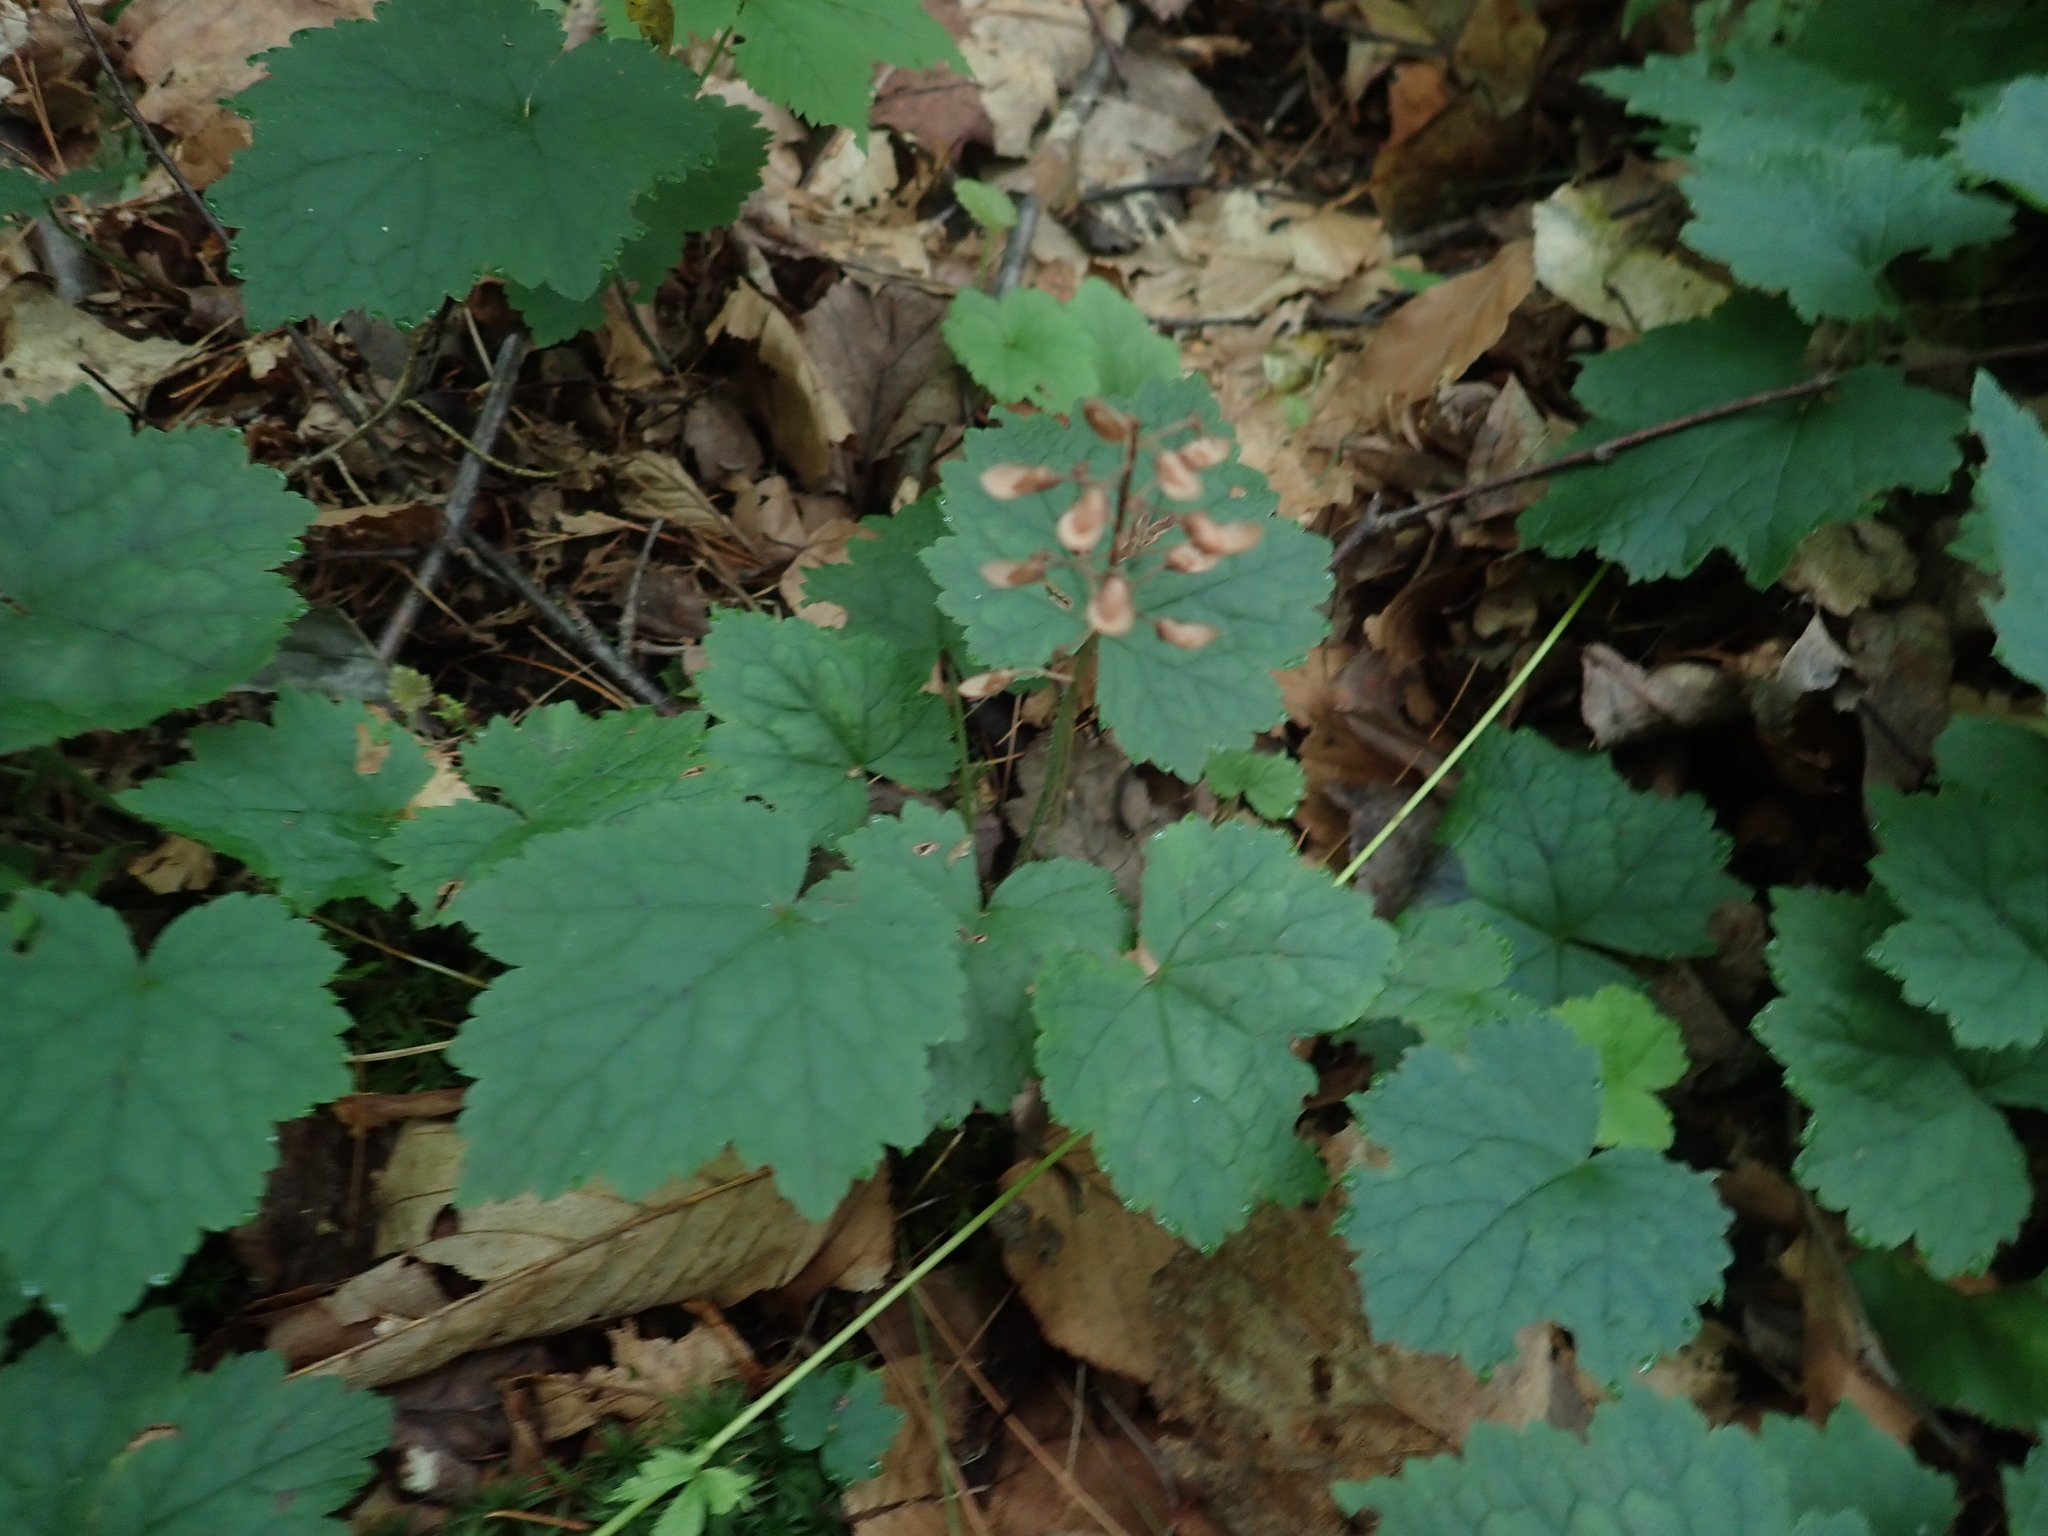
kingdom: Plantae
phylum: Tracheophyta
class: Magnoliopsida
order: Saxifragales
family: Saxifragaceae
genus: Tiarella
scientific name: Tiarella stolonifera
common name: Stoloniferous foamflower
